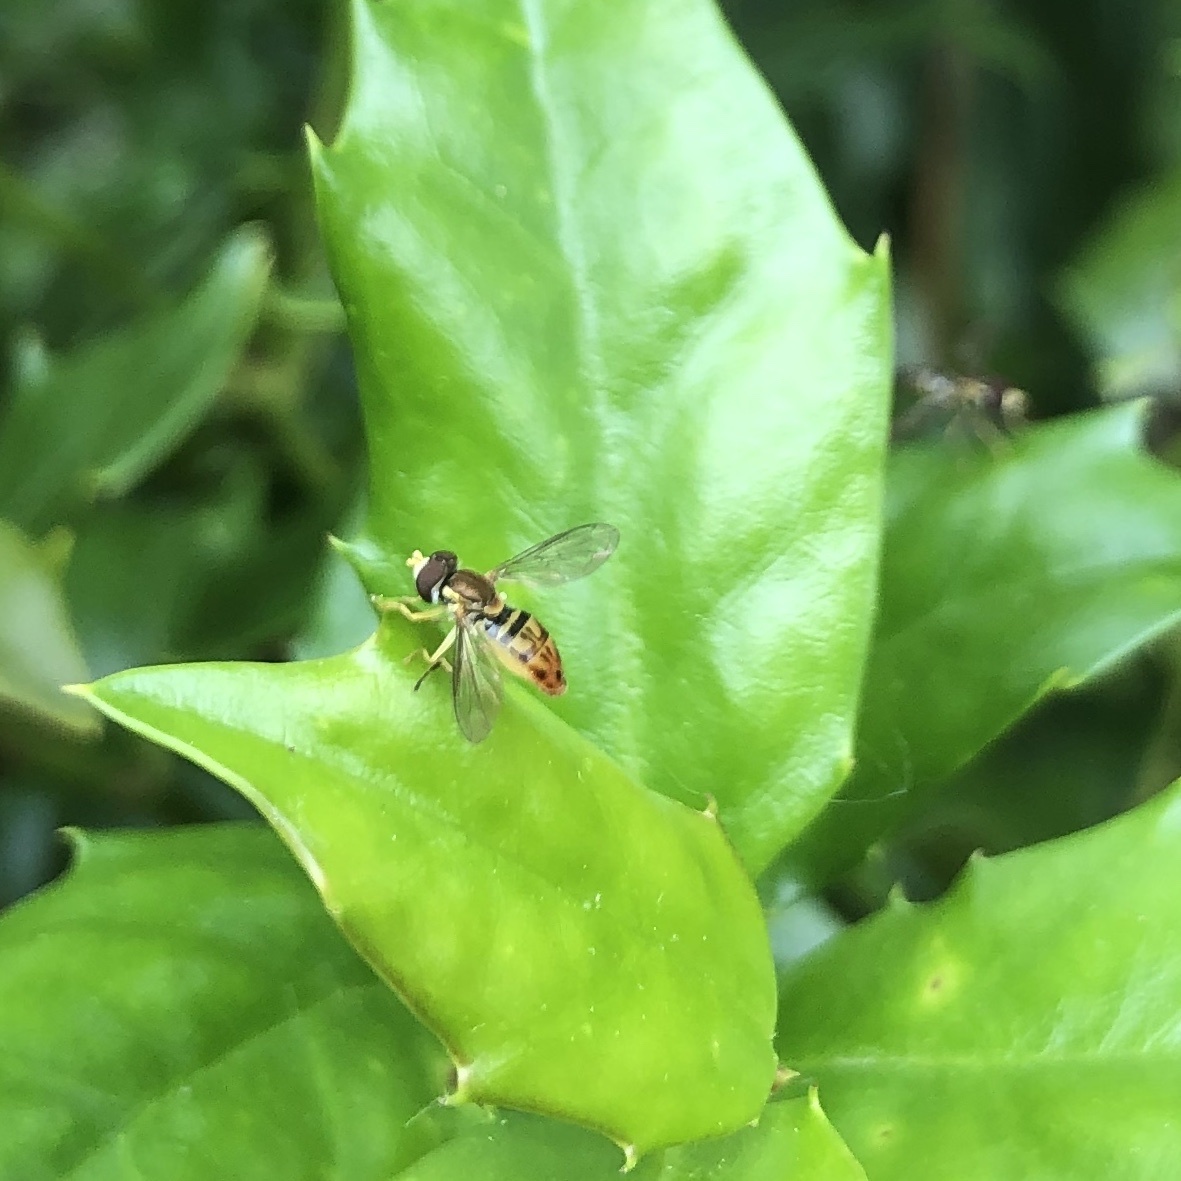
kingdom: Animalia
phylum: Arthropoda
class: Insecta
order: Diptera
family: Syrphidae
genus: Toxomerus
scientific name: Toxomerus marginatus
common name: Syrphid fly
